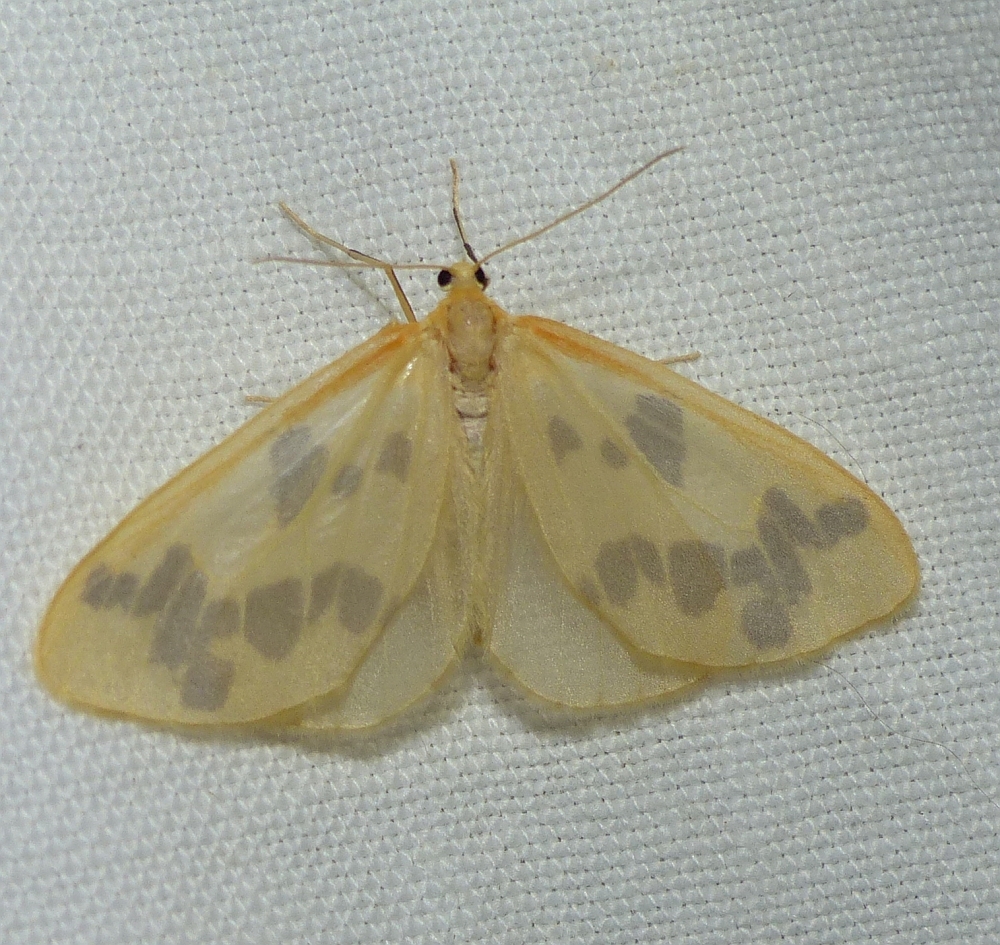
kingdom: Animalia
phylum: Arthropoda
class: Insecta
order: Lepidoptera
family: Geometridae
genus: Eubaphe
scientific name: Eubaphe mendica
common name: Beggar
